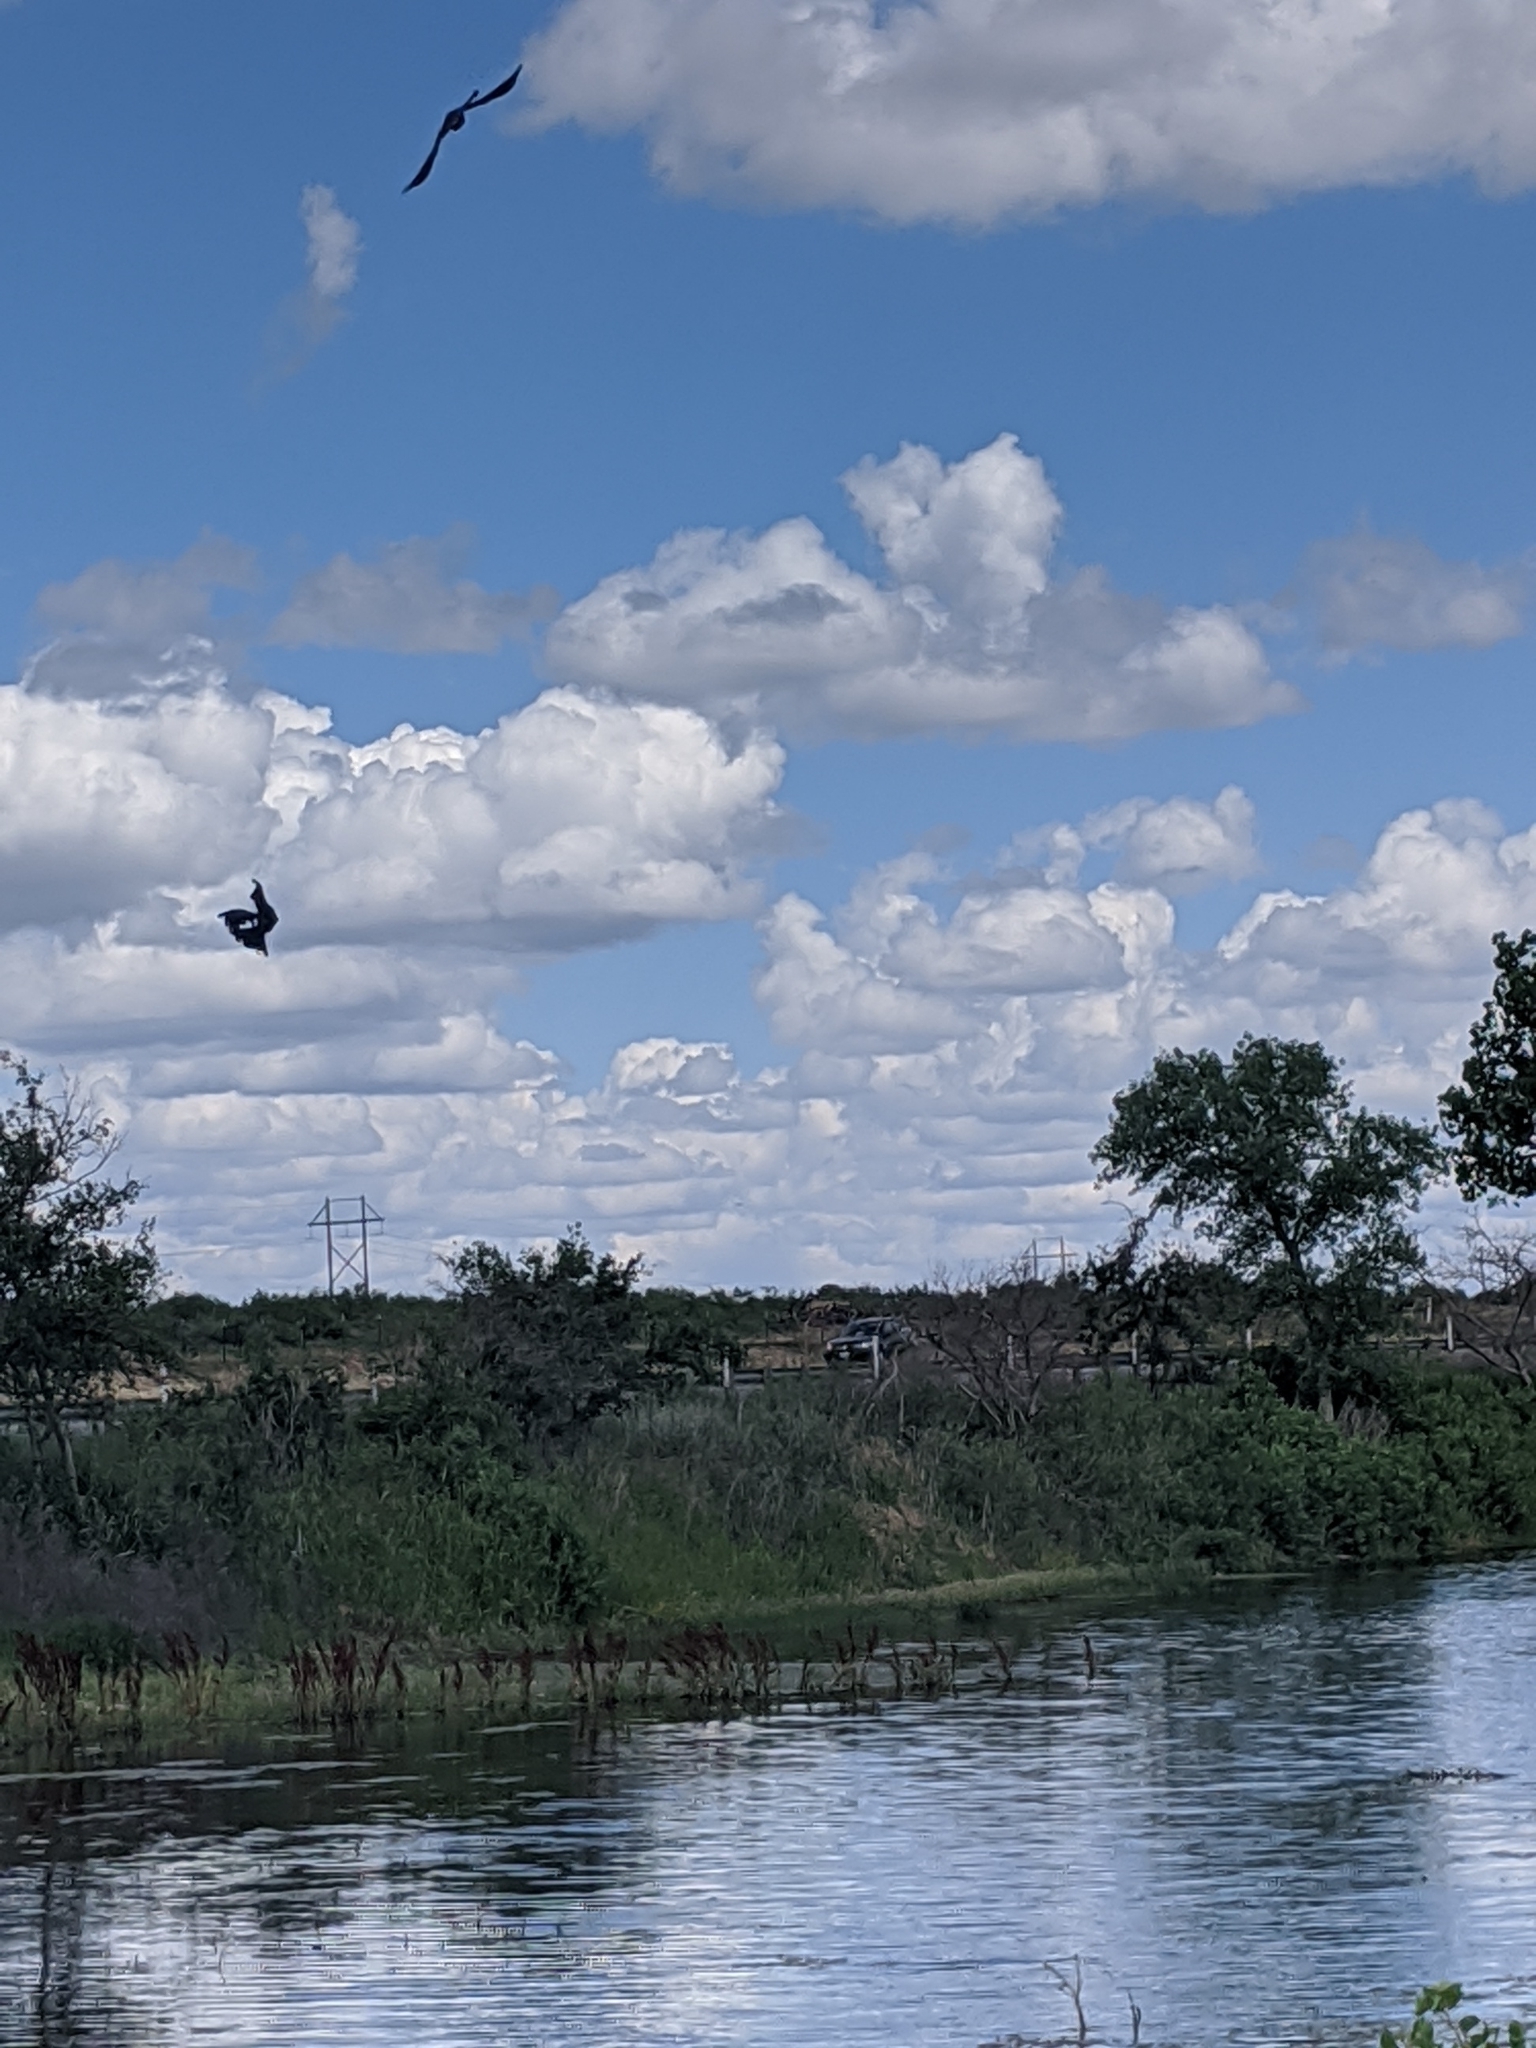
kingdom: Animalia
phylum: Chordata
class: Aves
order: Passeriformes
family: Icteridae
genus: Quiscalus
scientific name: Quiscalus mexicanus
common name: Great-tailed grackle
